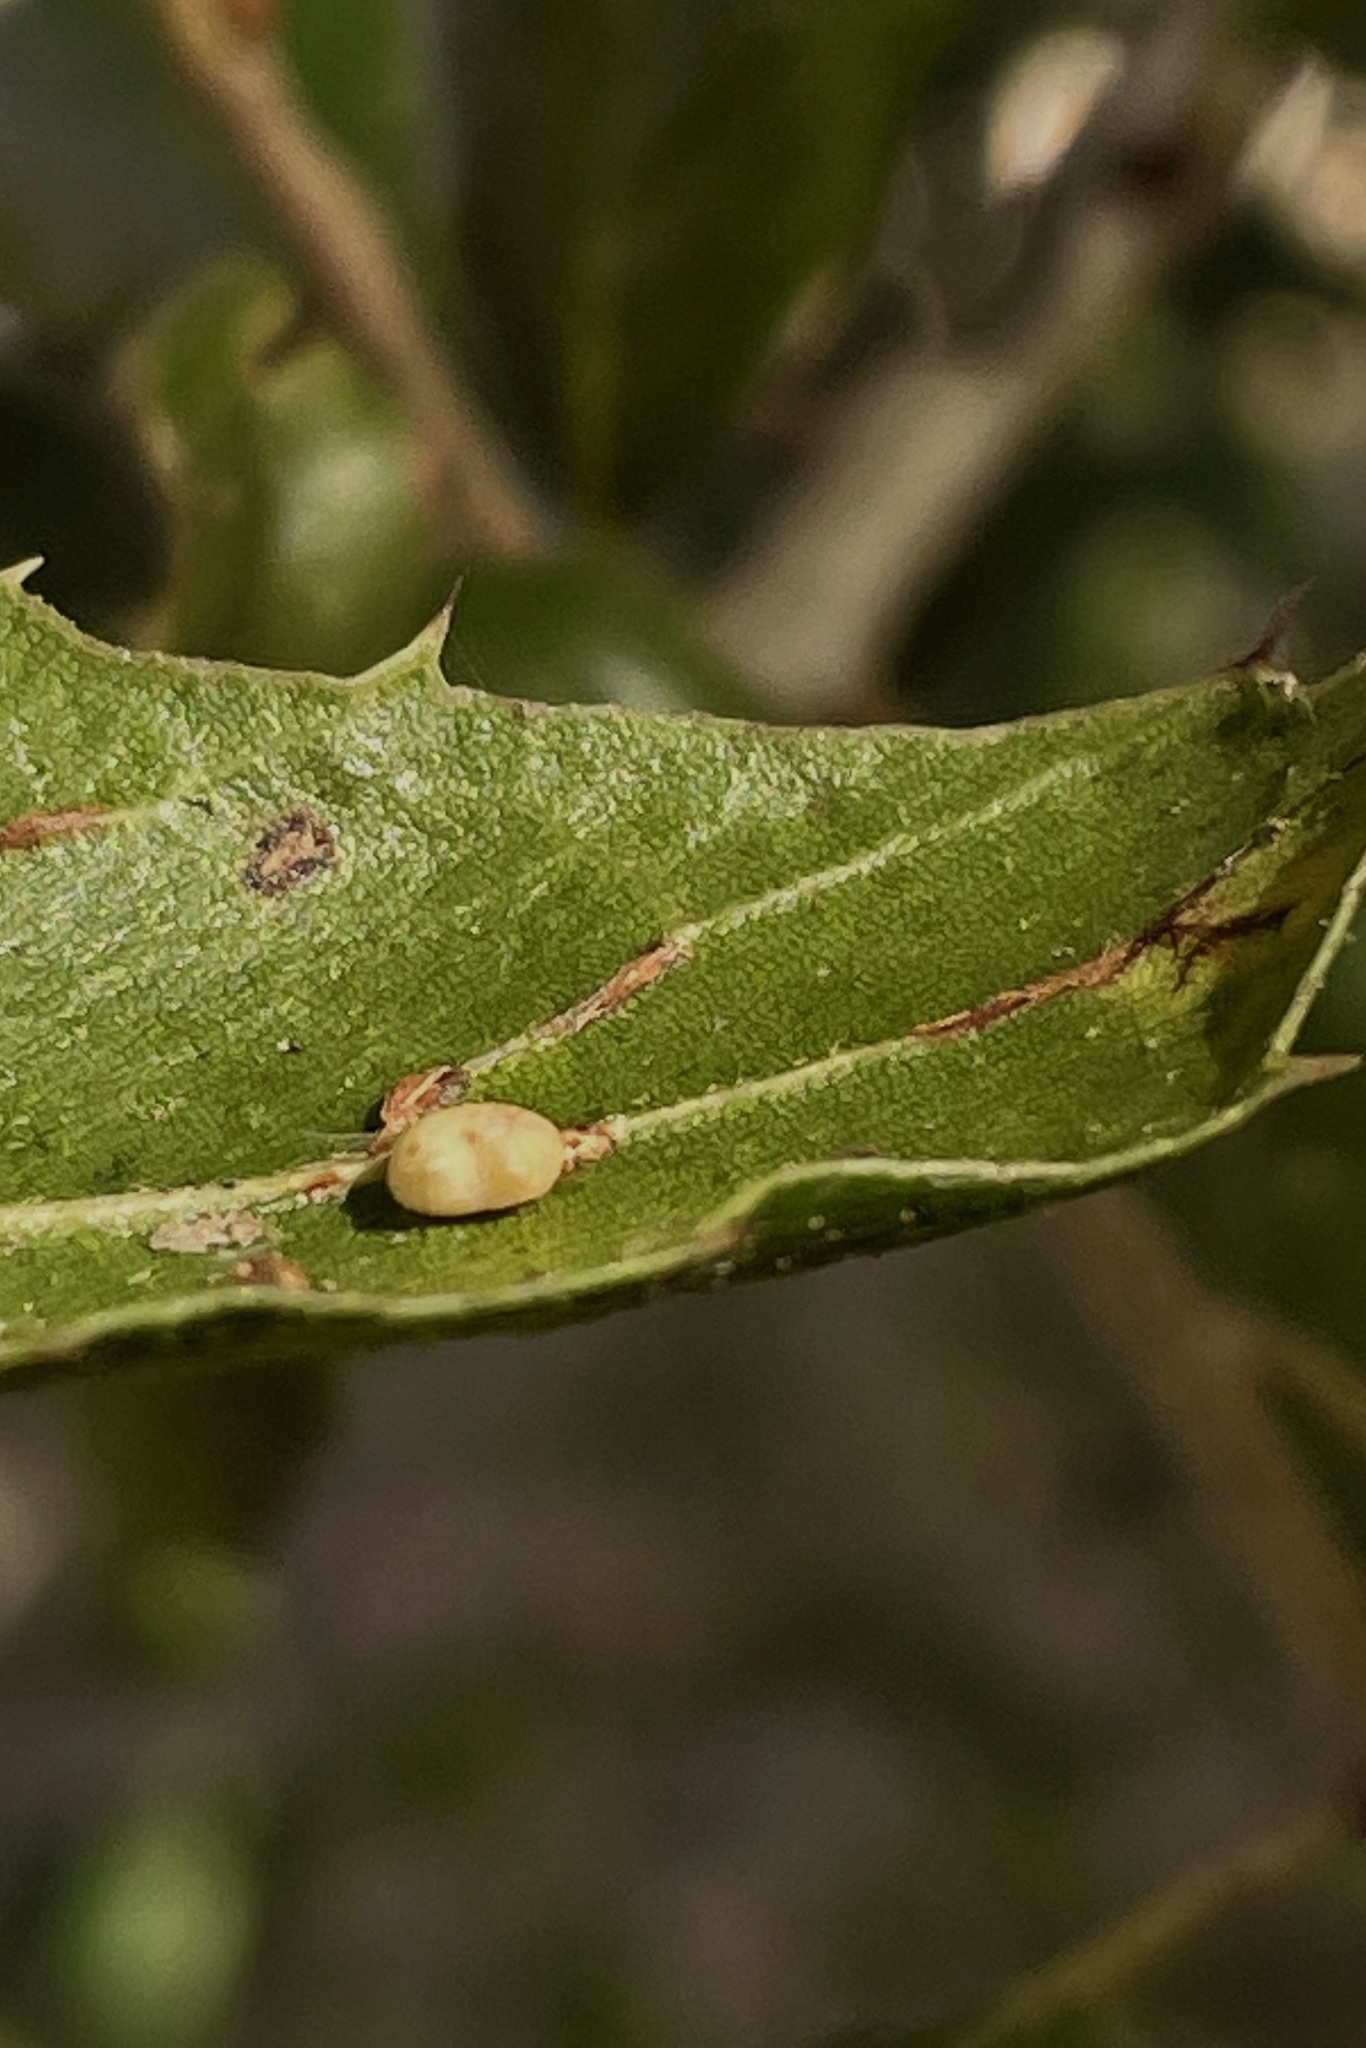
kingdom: Animalia
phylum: Arthropoda
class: Insecta
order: Hymenoptera
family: Cynipidae
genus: Dryocosmus
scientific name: Dryocosmus
